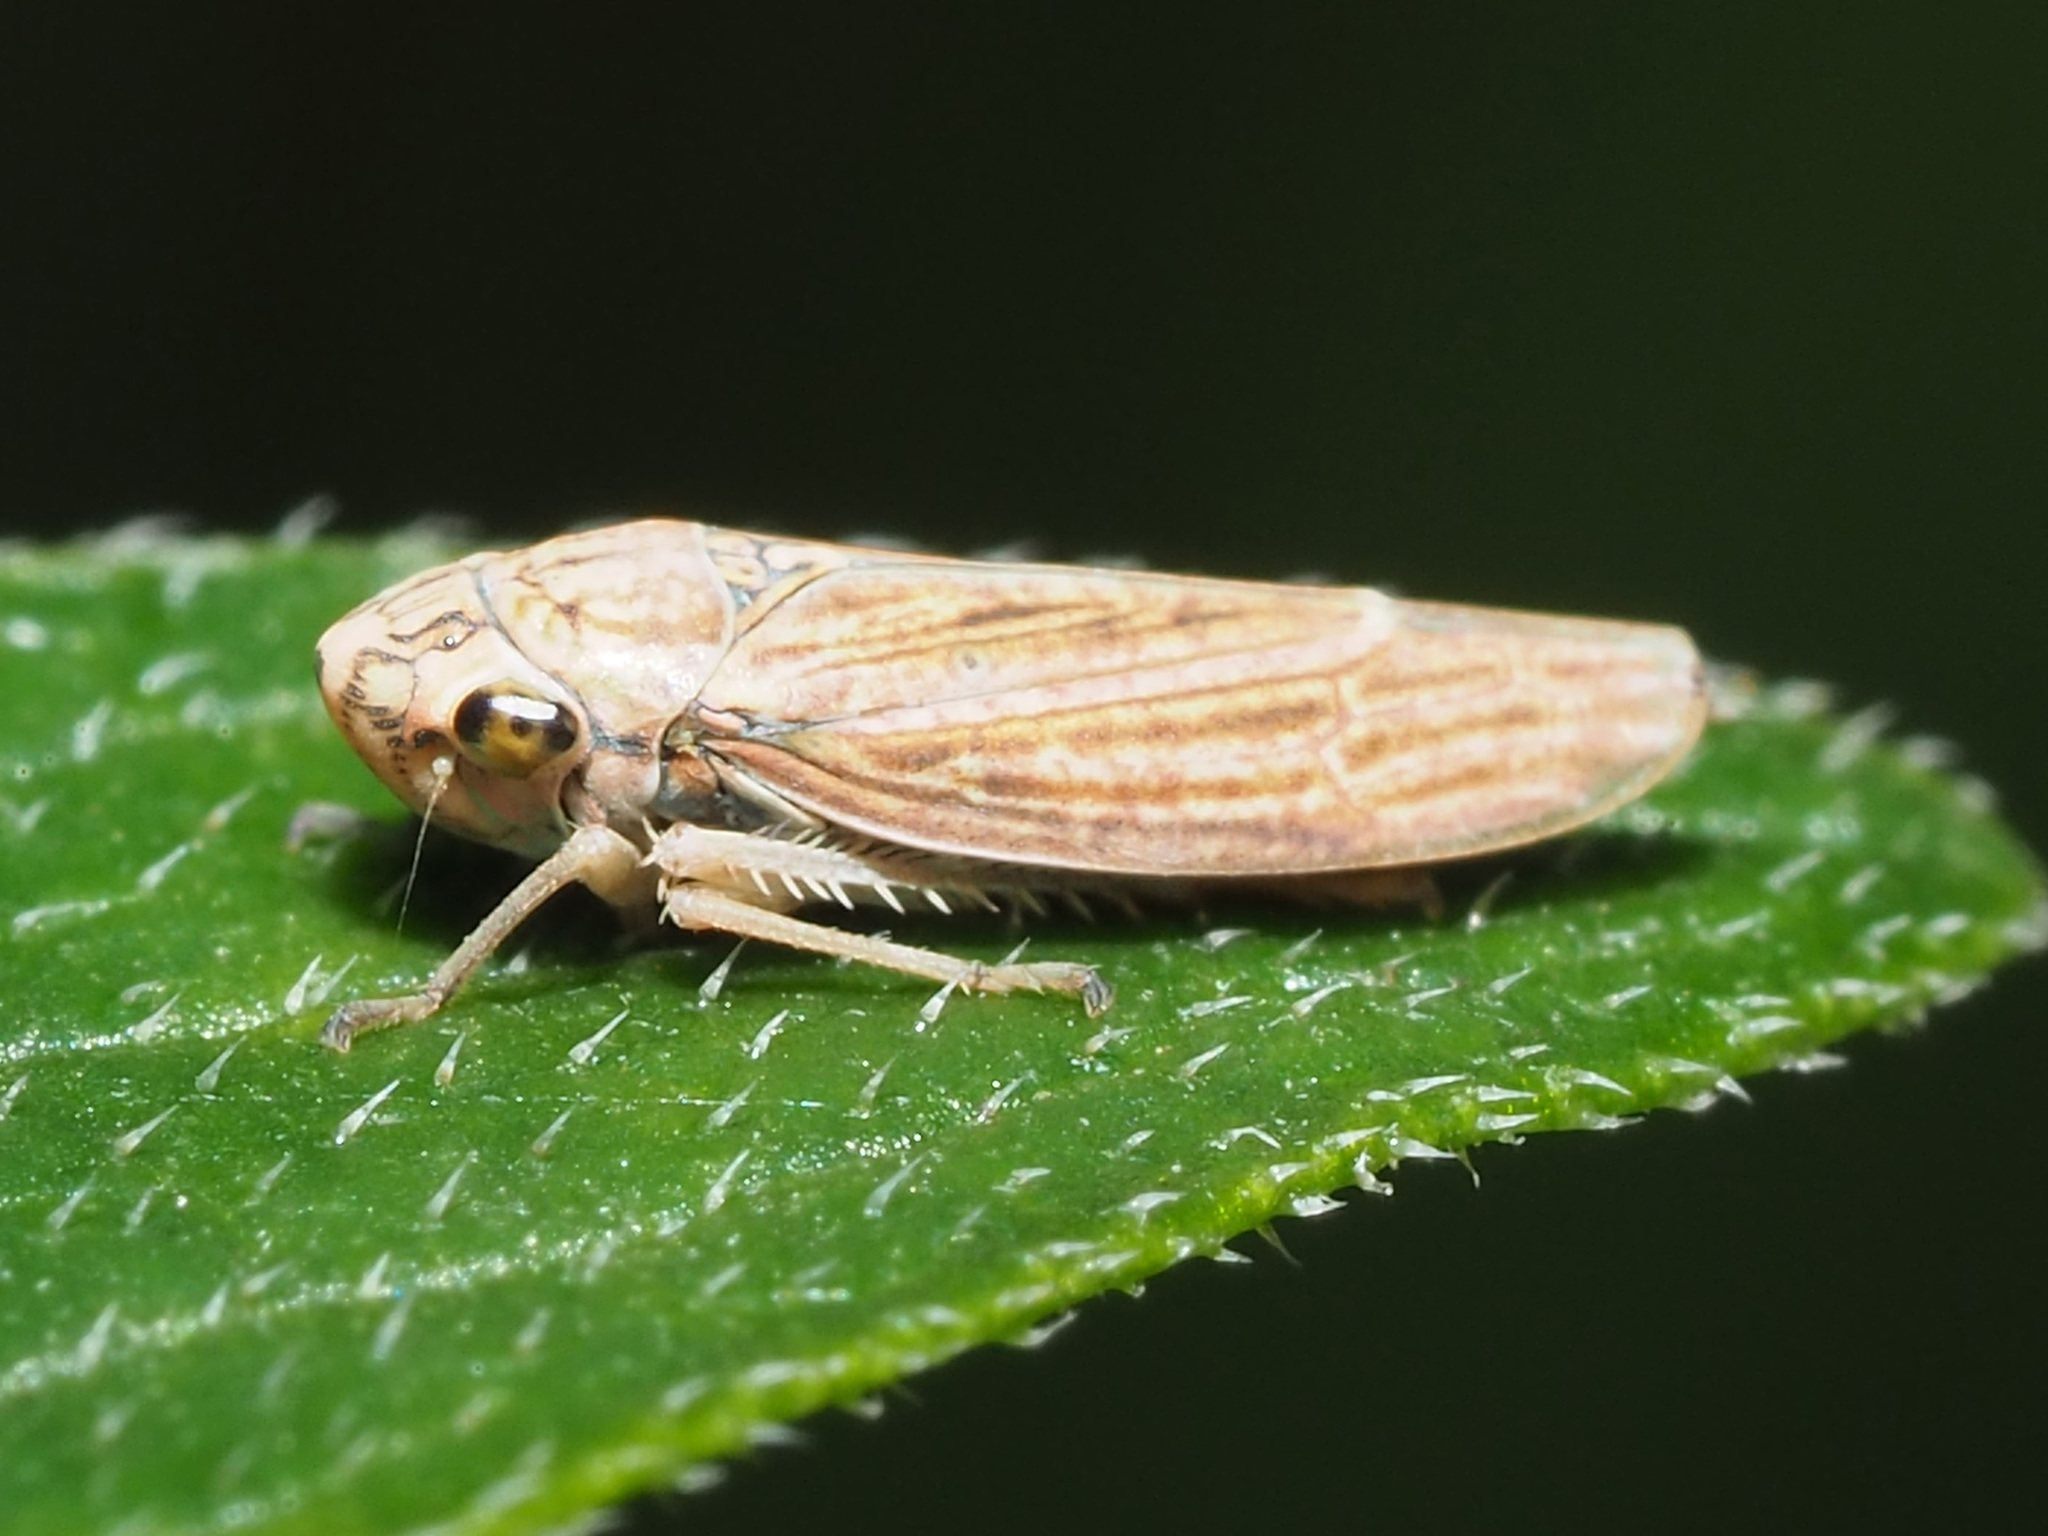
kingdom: Animalia
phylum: Arthropoda
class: Insecta
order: Hemiptera
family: Cicadellidae
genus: Neokolla
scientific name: Neokolla hieroglyphica
